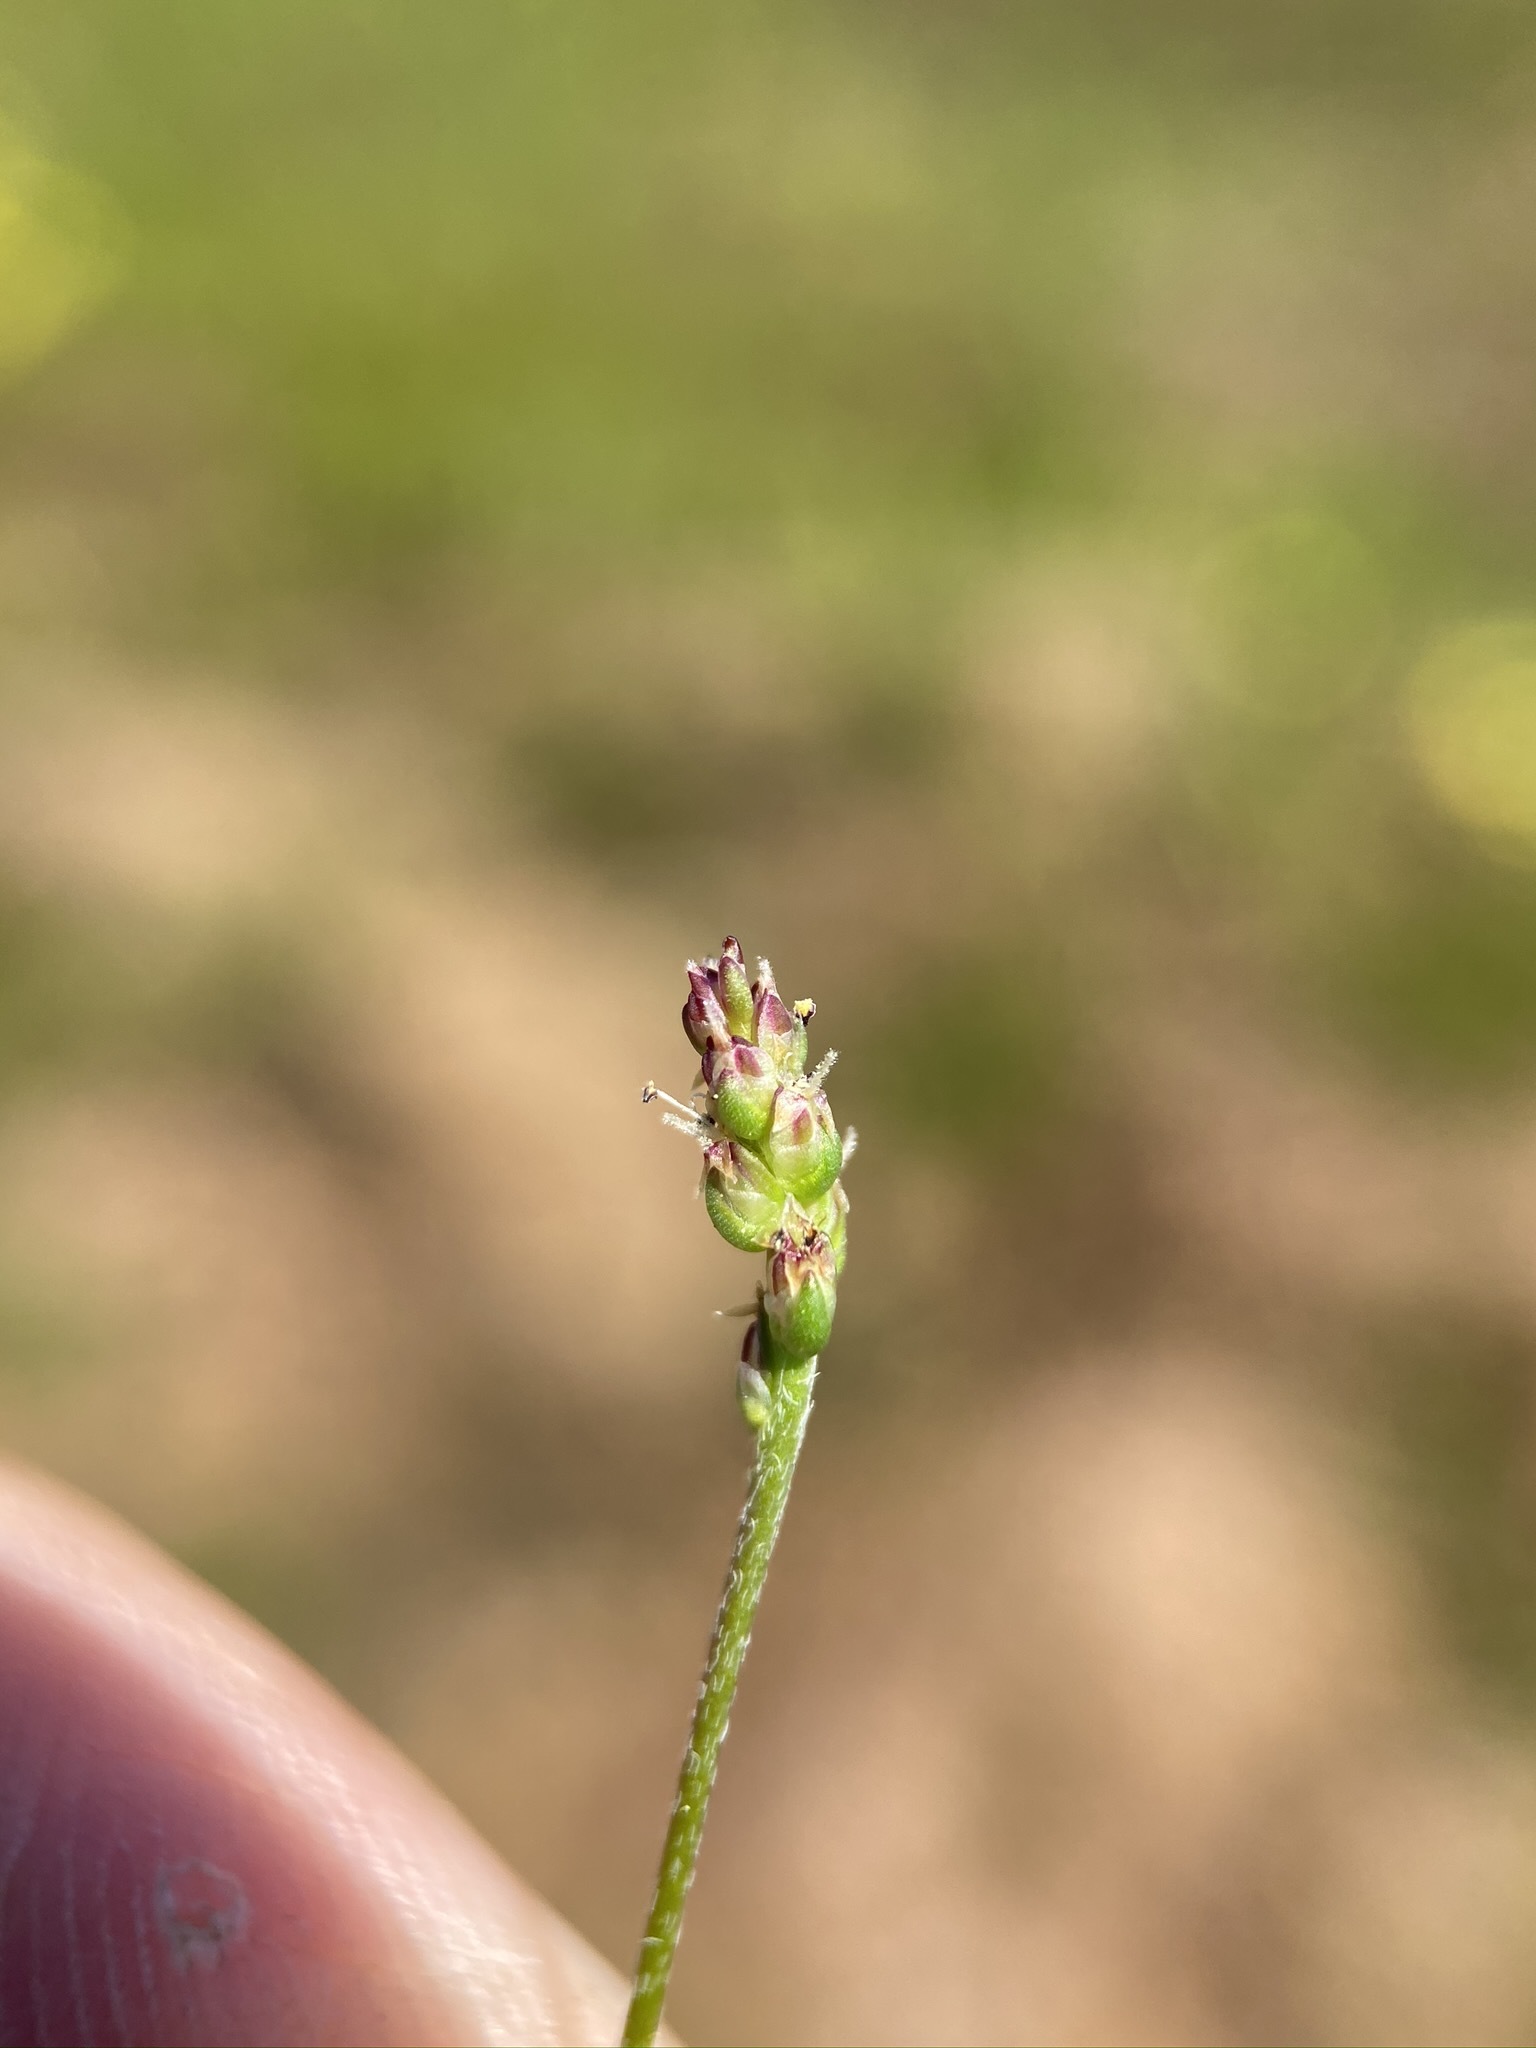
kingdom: Plantae
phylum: Tracheophyta
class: Magnoliopsida
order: Lamiales
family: Plantaginaceae
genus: Plantago
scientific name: Plantago elongata
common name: Linear-leaved plantain
